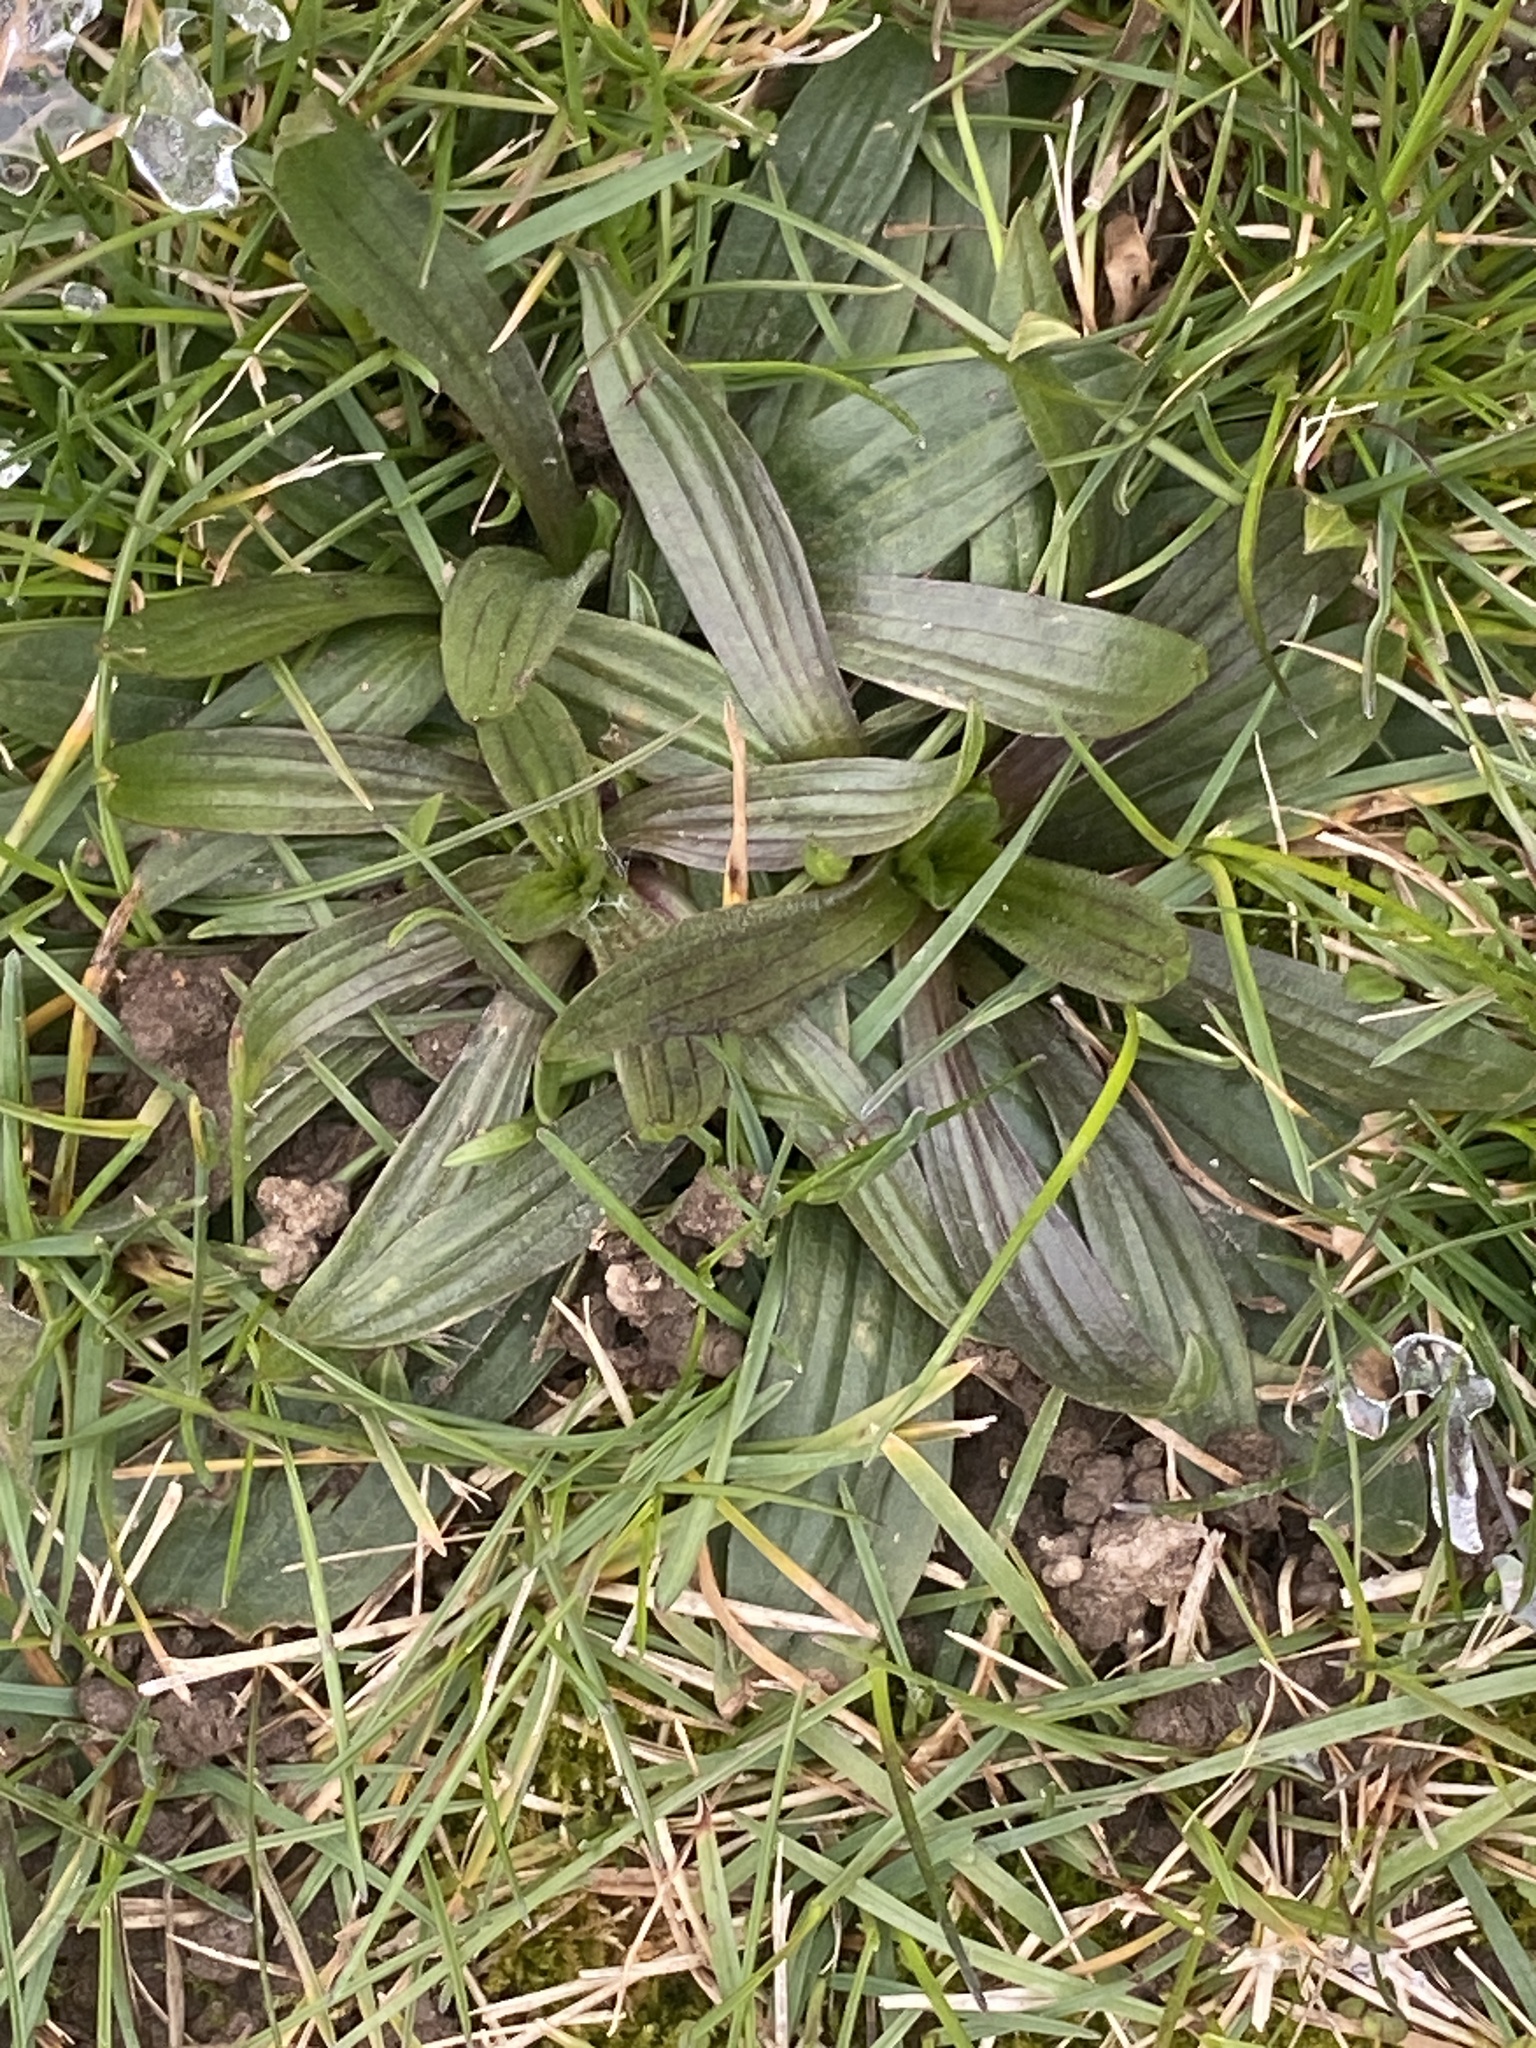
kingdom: Plantae
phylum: Tracheophyta
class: Magnoliopsida
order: Lamiales
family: Plantaginaceae
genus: Plantago
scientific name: Plantago lanceolata
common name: Ribwort plantain
